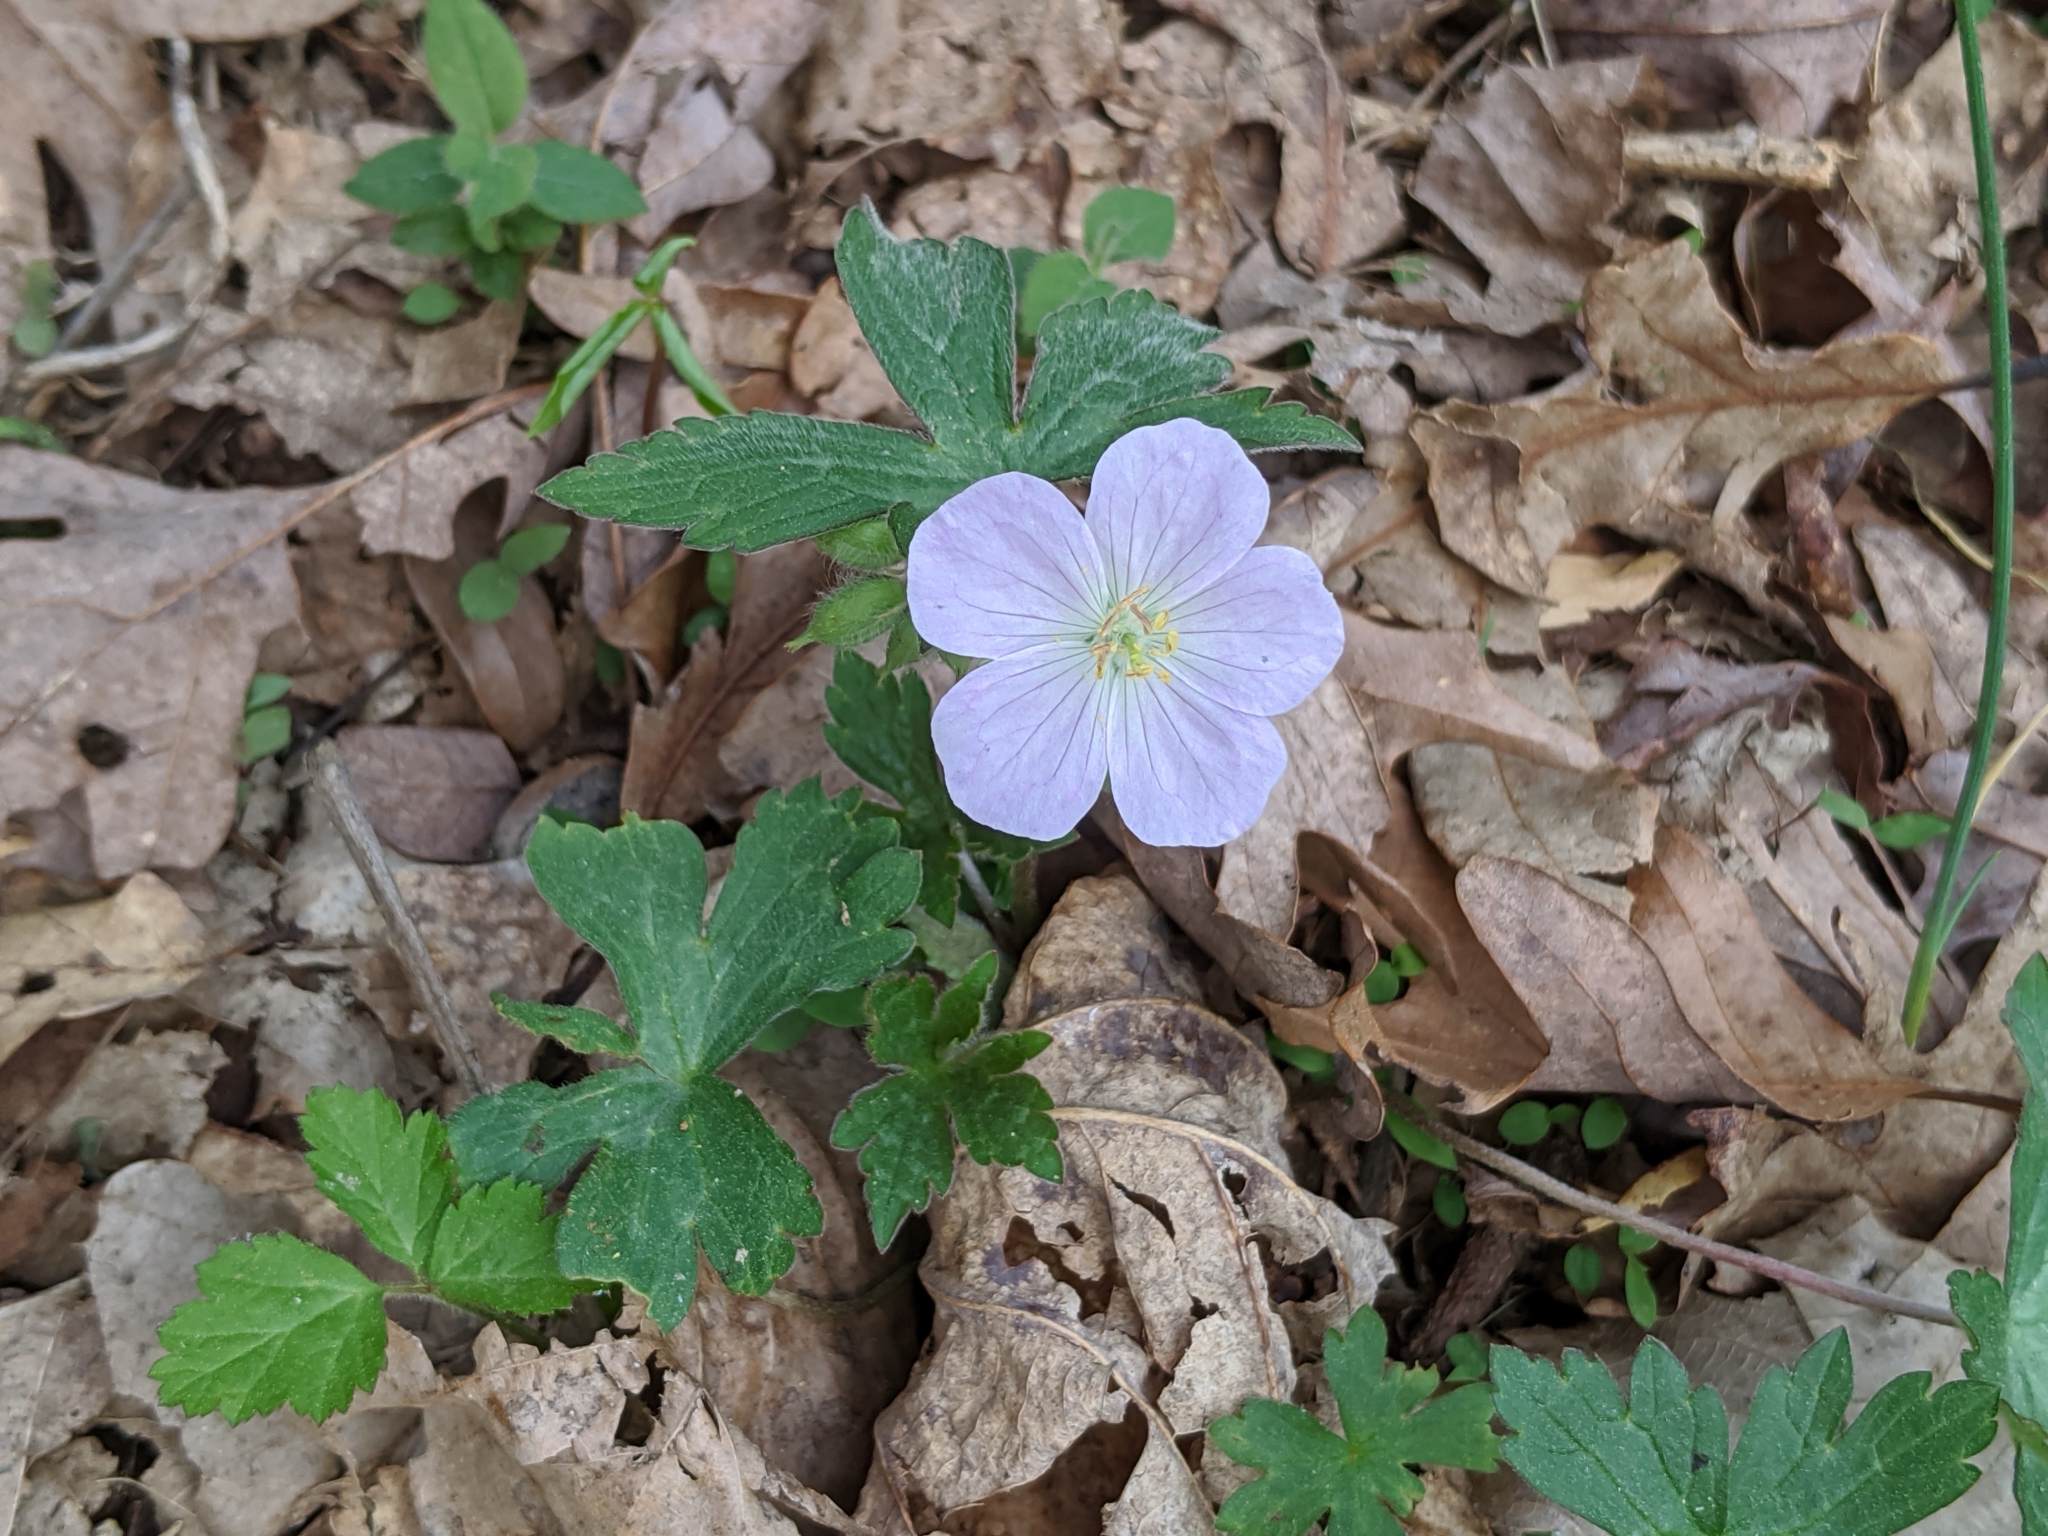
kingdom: Plantae
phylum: Tracheophyta
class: Magnoliopsida
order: Geraniales
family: Geraniaceae
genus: Geranium
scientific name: Geranium maculatum
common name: Spotted geranium
